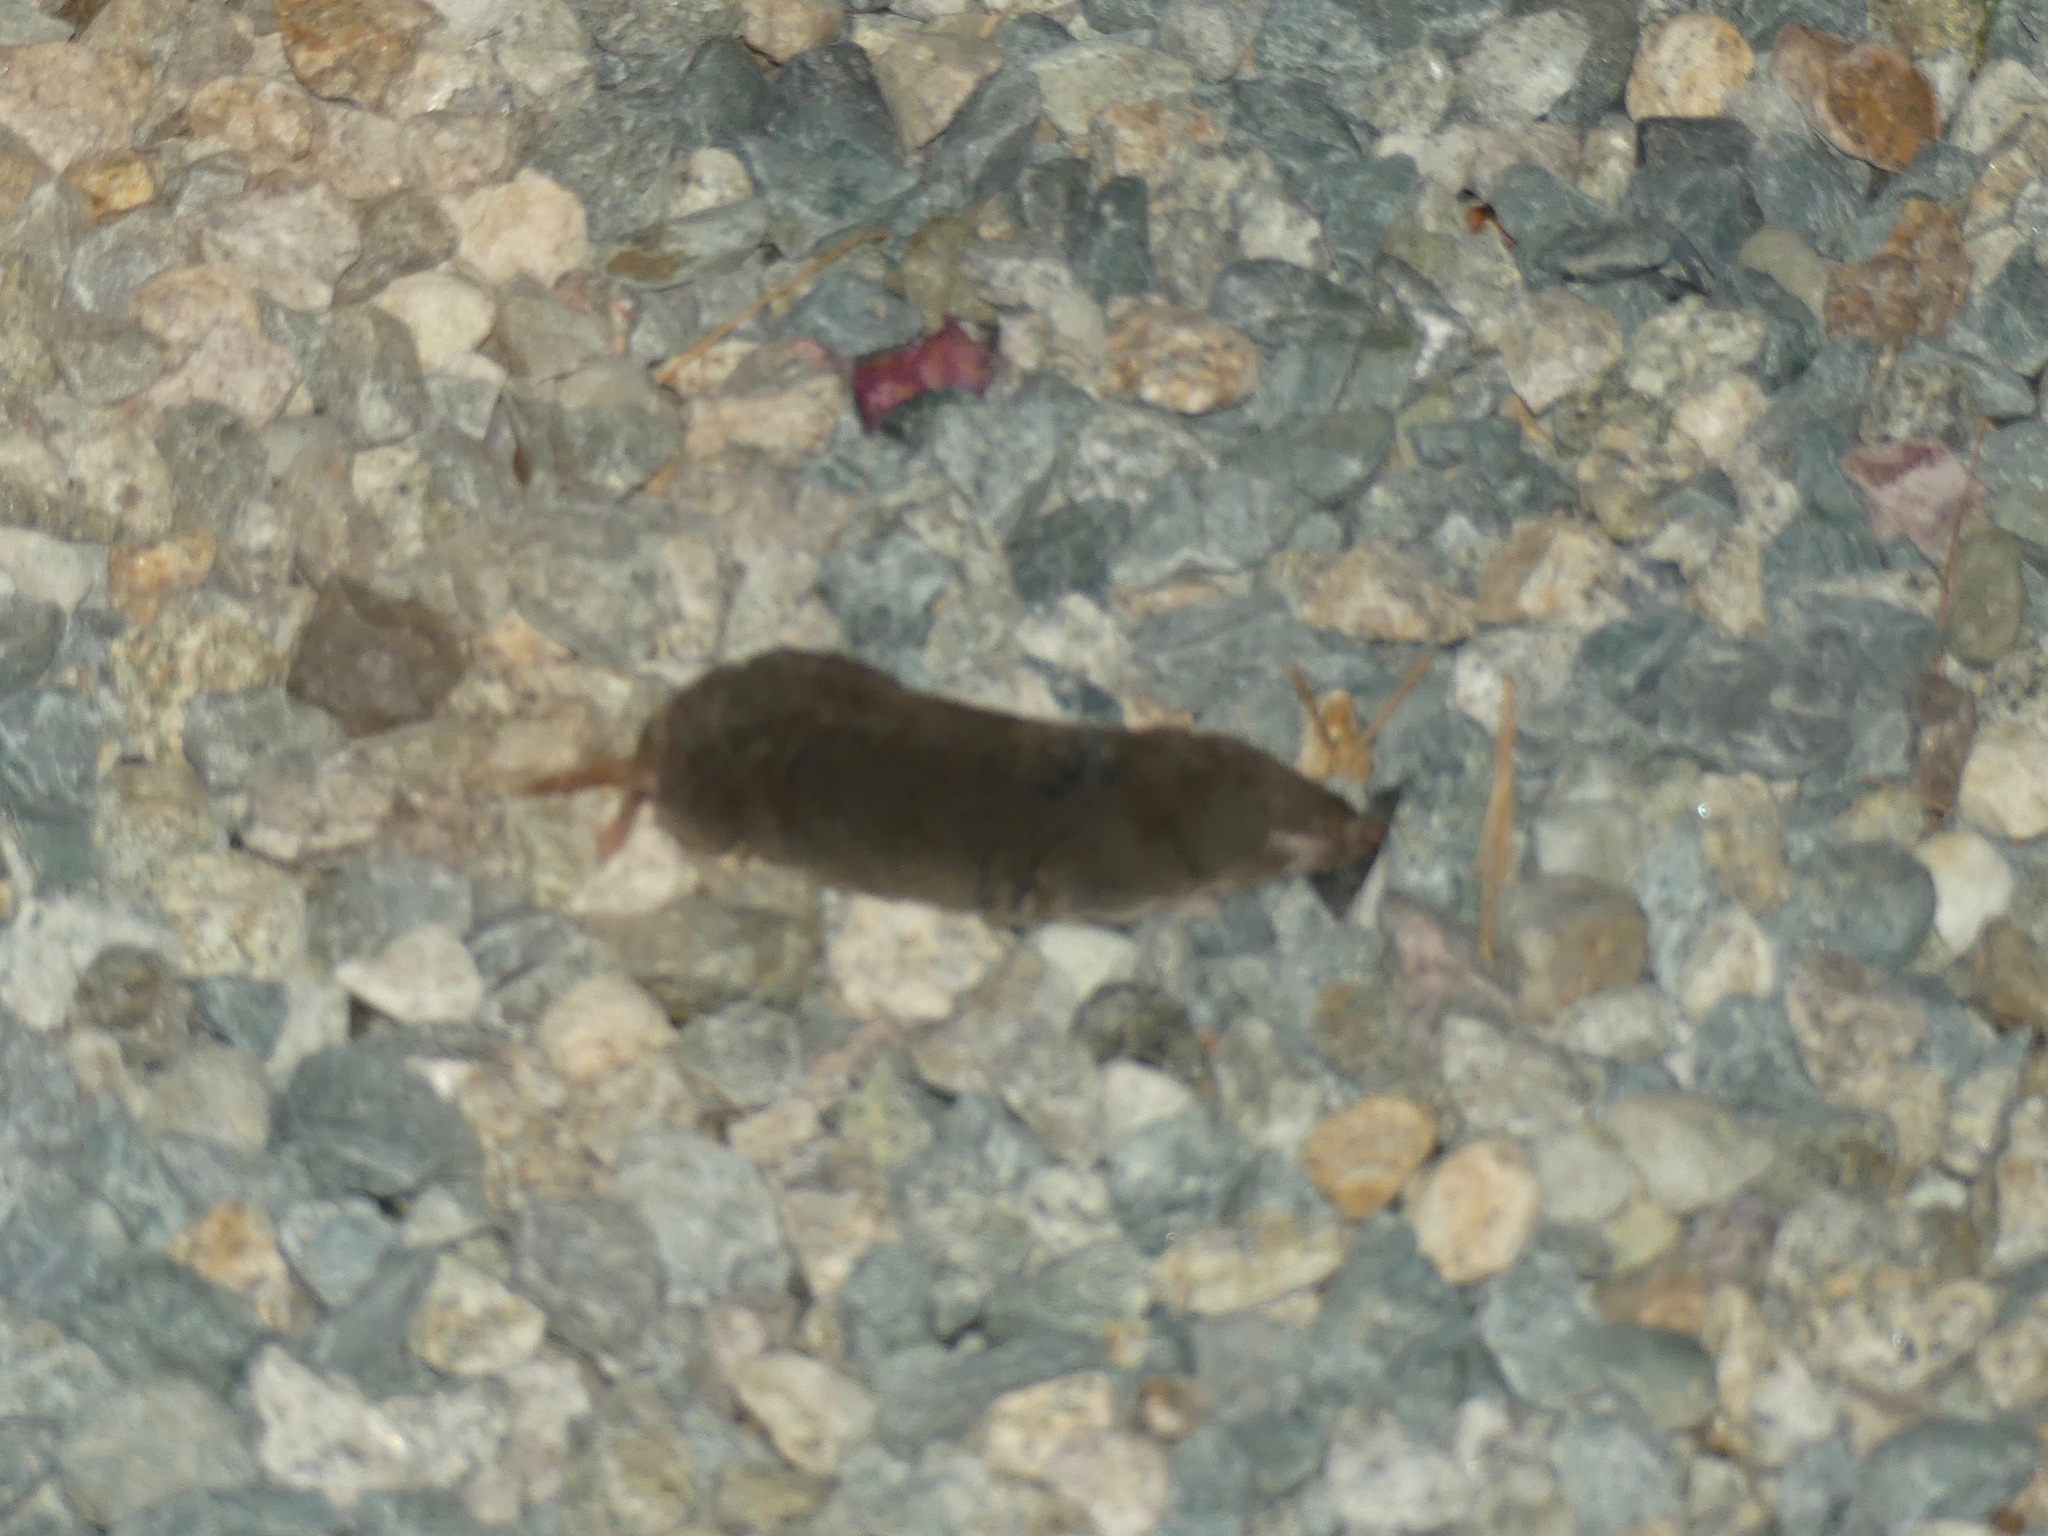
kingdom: Animalia
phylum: Chordata
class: Mammalia
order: Soricomorpha
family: Soricidae
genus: Blarina
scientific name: Blarina brevicauda
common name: Northern short-tailed shrew
